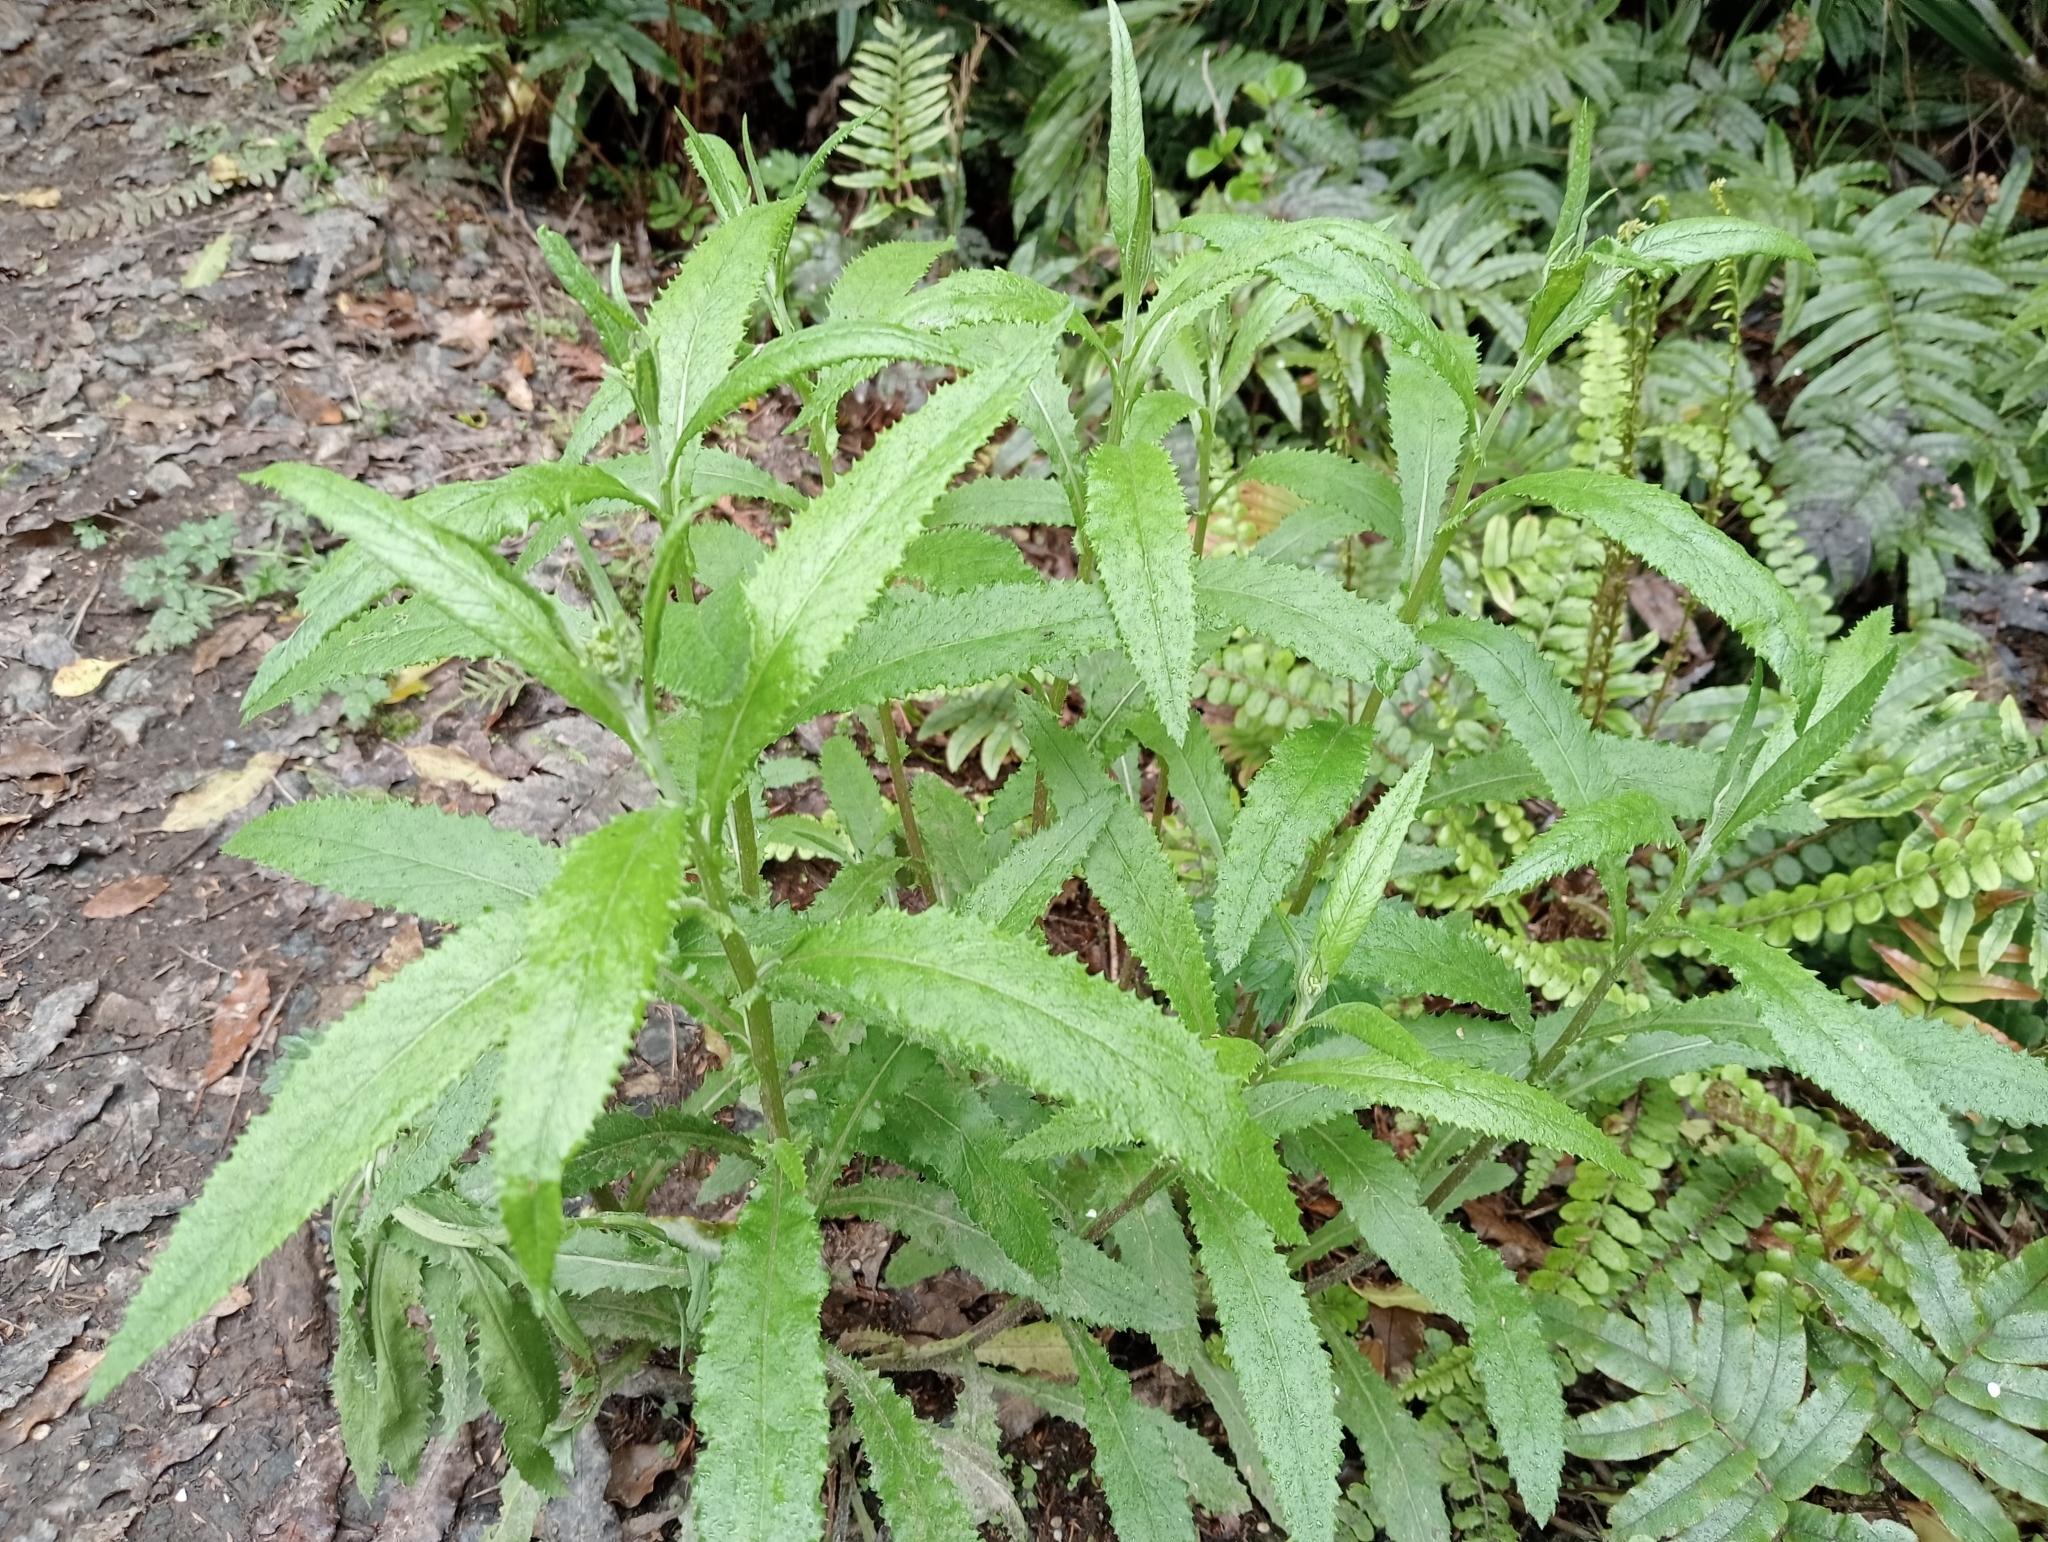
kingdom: Plantae
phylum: Tracheophyta
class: Magnoliopsida
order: Asterales
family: Asteraceae
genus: Senecio
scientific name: Senecio minimus
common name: Toothed fireweed
